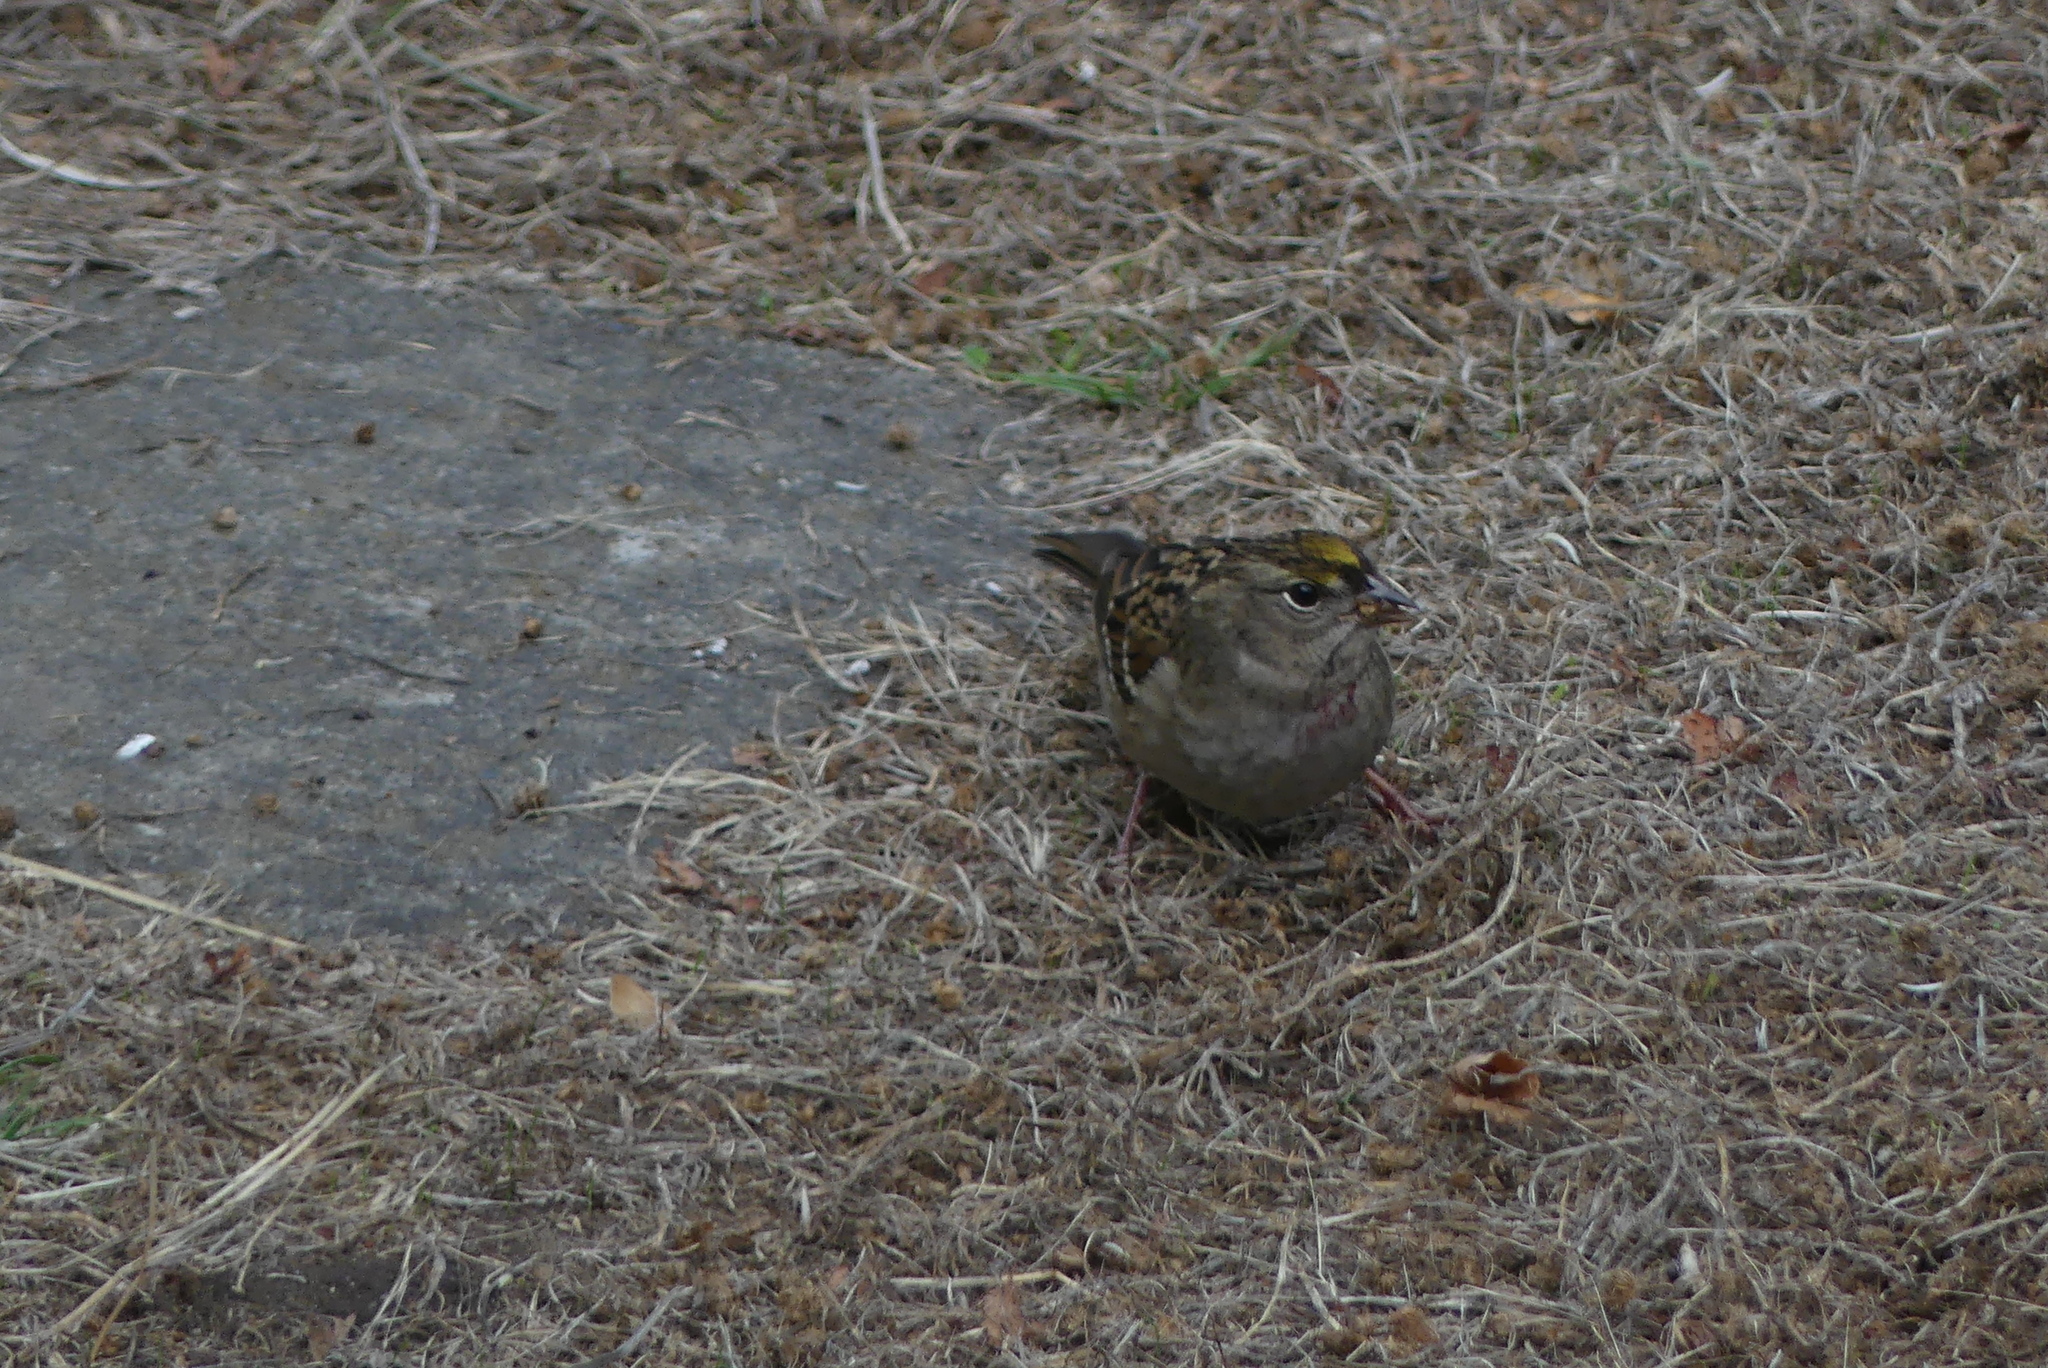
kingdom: Animalia
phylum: Chordata
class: Aves
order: Passeriformes
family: Passerellidae
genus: Zonotrichia
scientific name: Zonotrichia atricapilla
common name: Golden-crowned sparrow
